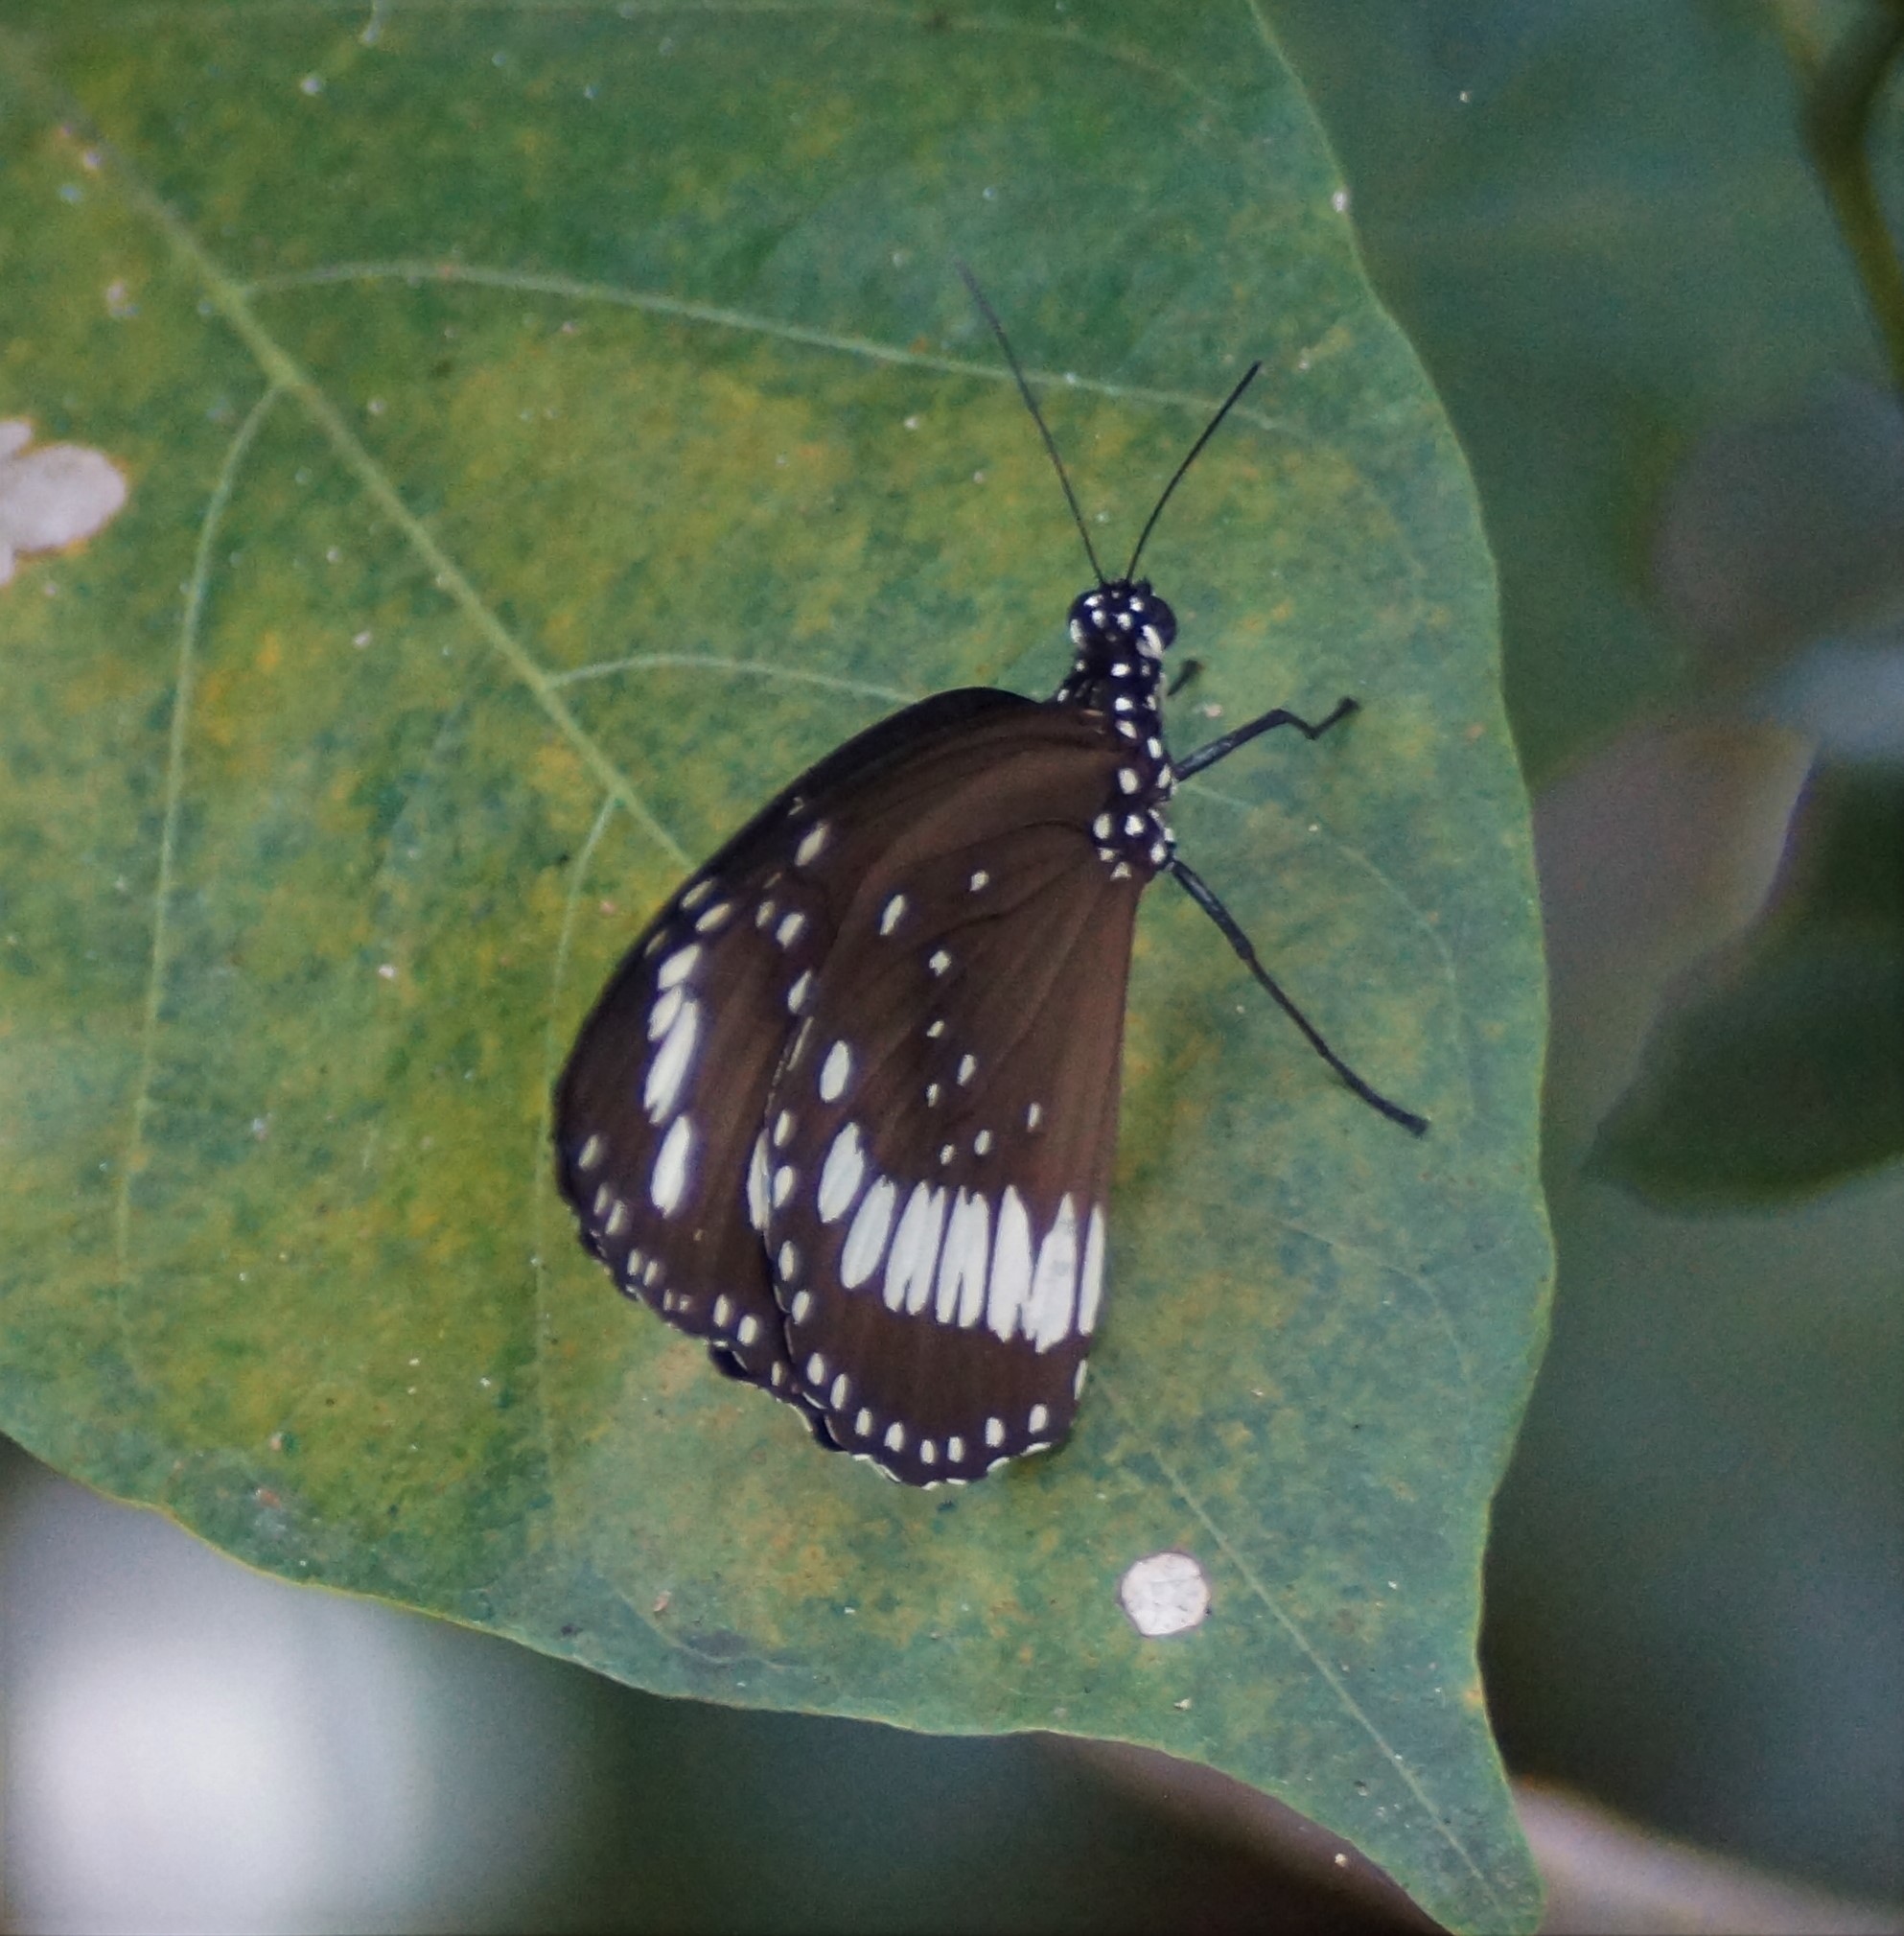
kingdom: Animalia
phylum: Arthropoda
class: Insecta
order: Lepidoptera
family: Nymphalidae
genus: Euploea
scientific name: Euploea core
